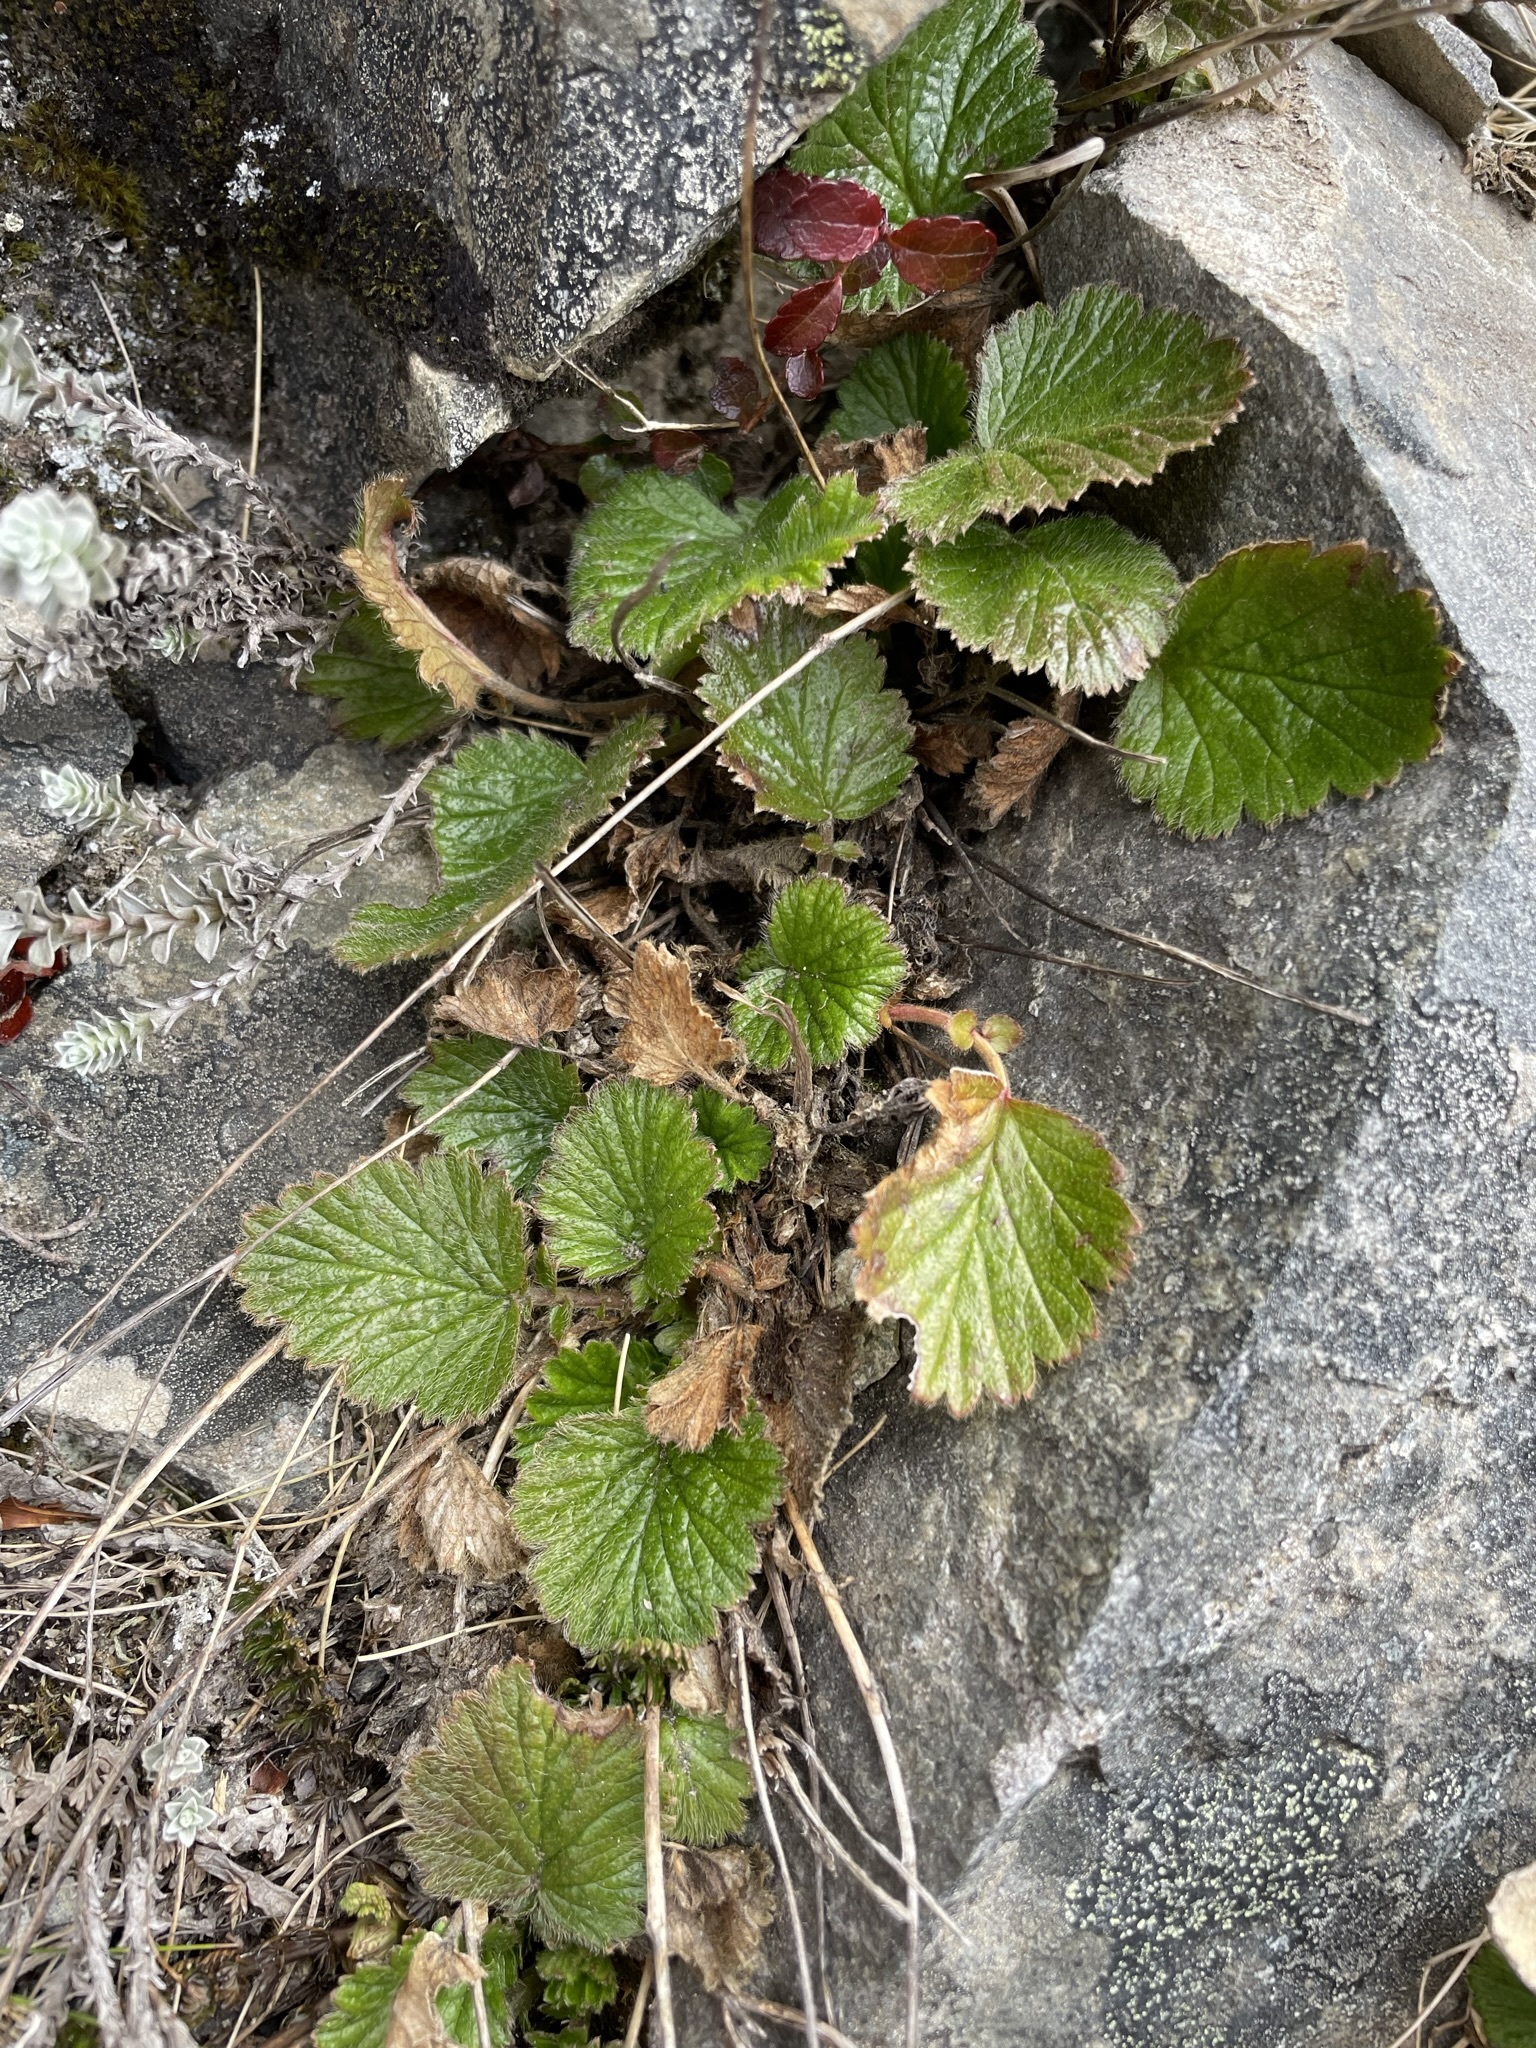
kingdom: Plantae
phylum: Tracheophyta
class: Magnoliopsida
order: Rosales
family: Rosaceae
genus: Geum
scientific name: Geum cockaynei
